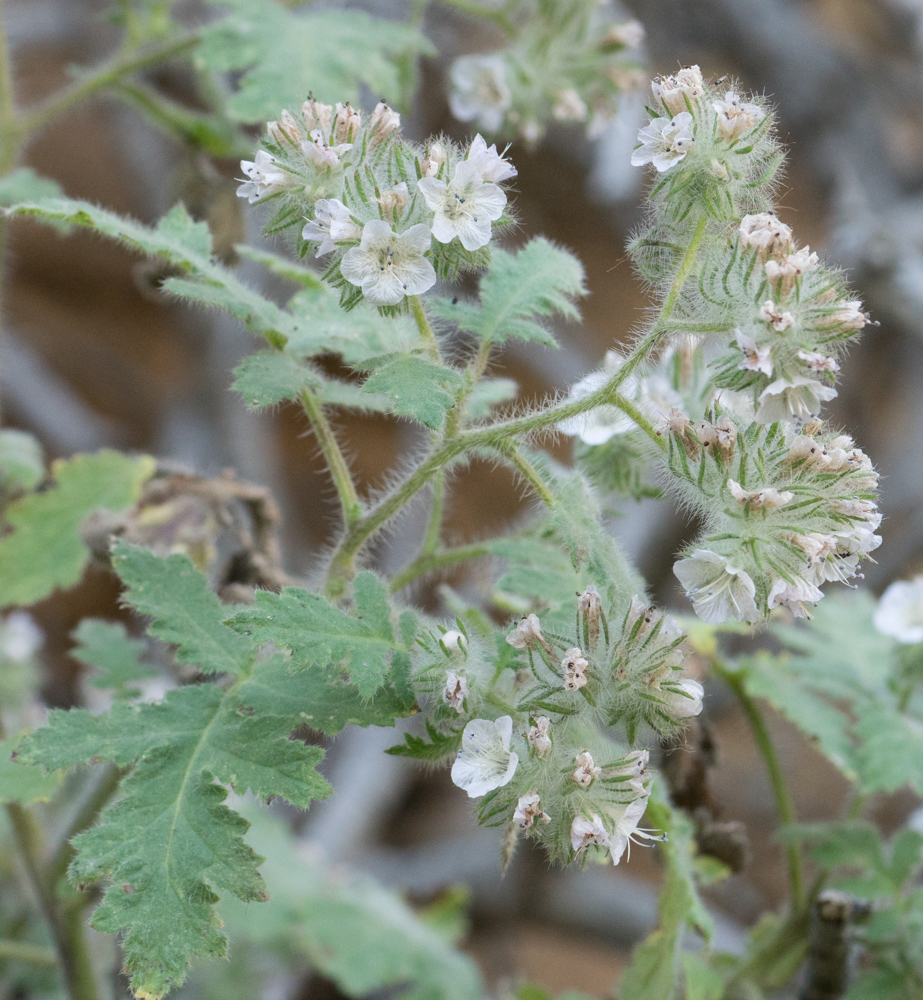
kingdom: Plantae
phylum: Tracheophyta
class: Magnoliopsida
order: Boraginales
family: Hydrophyllaceae
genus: Phacelia
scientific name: Phacelia cicutaria
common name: Caterpillar phacelia
